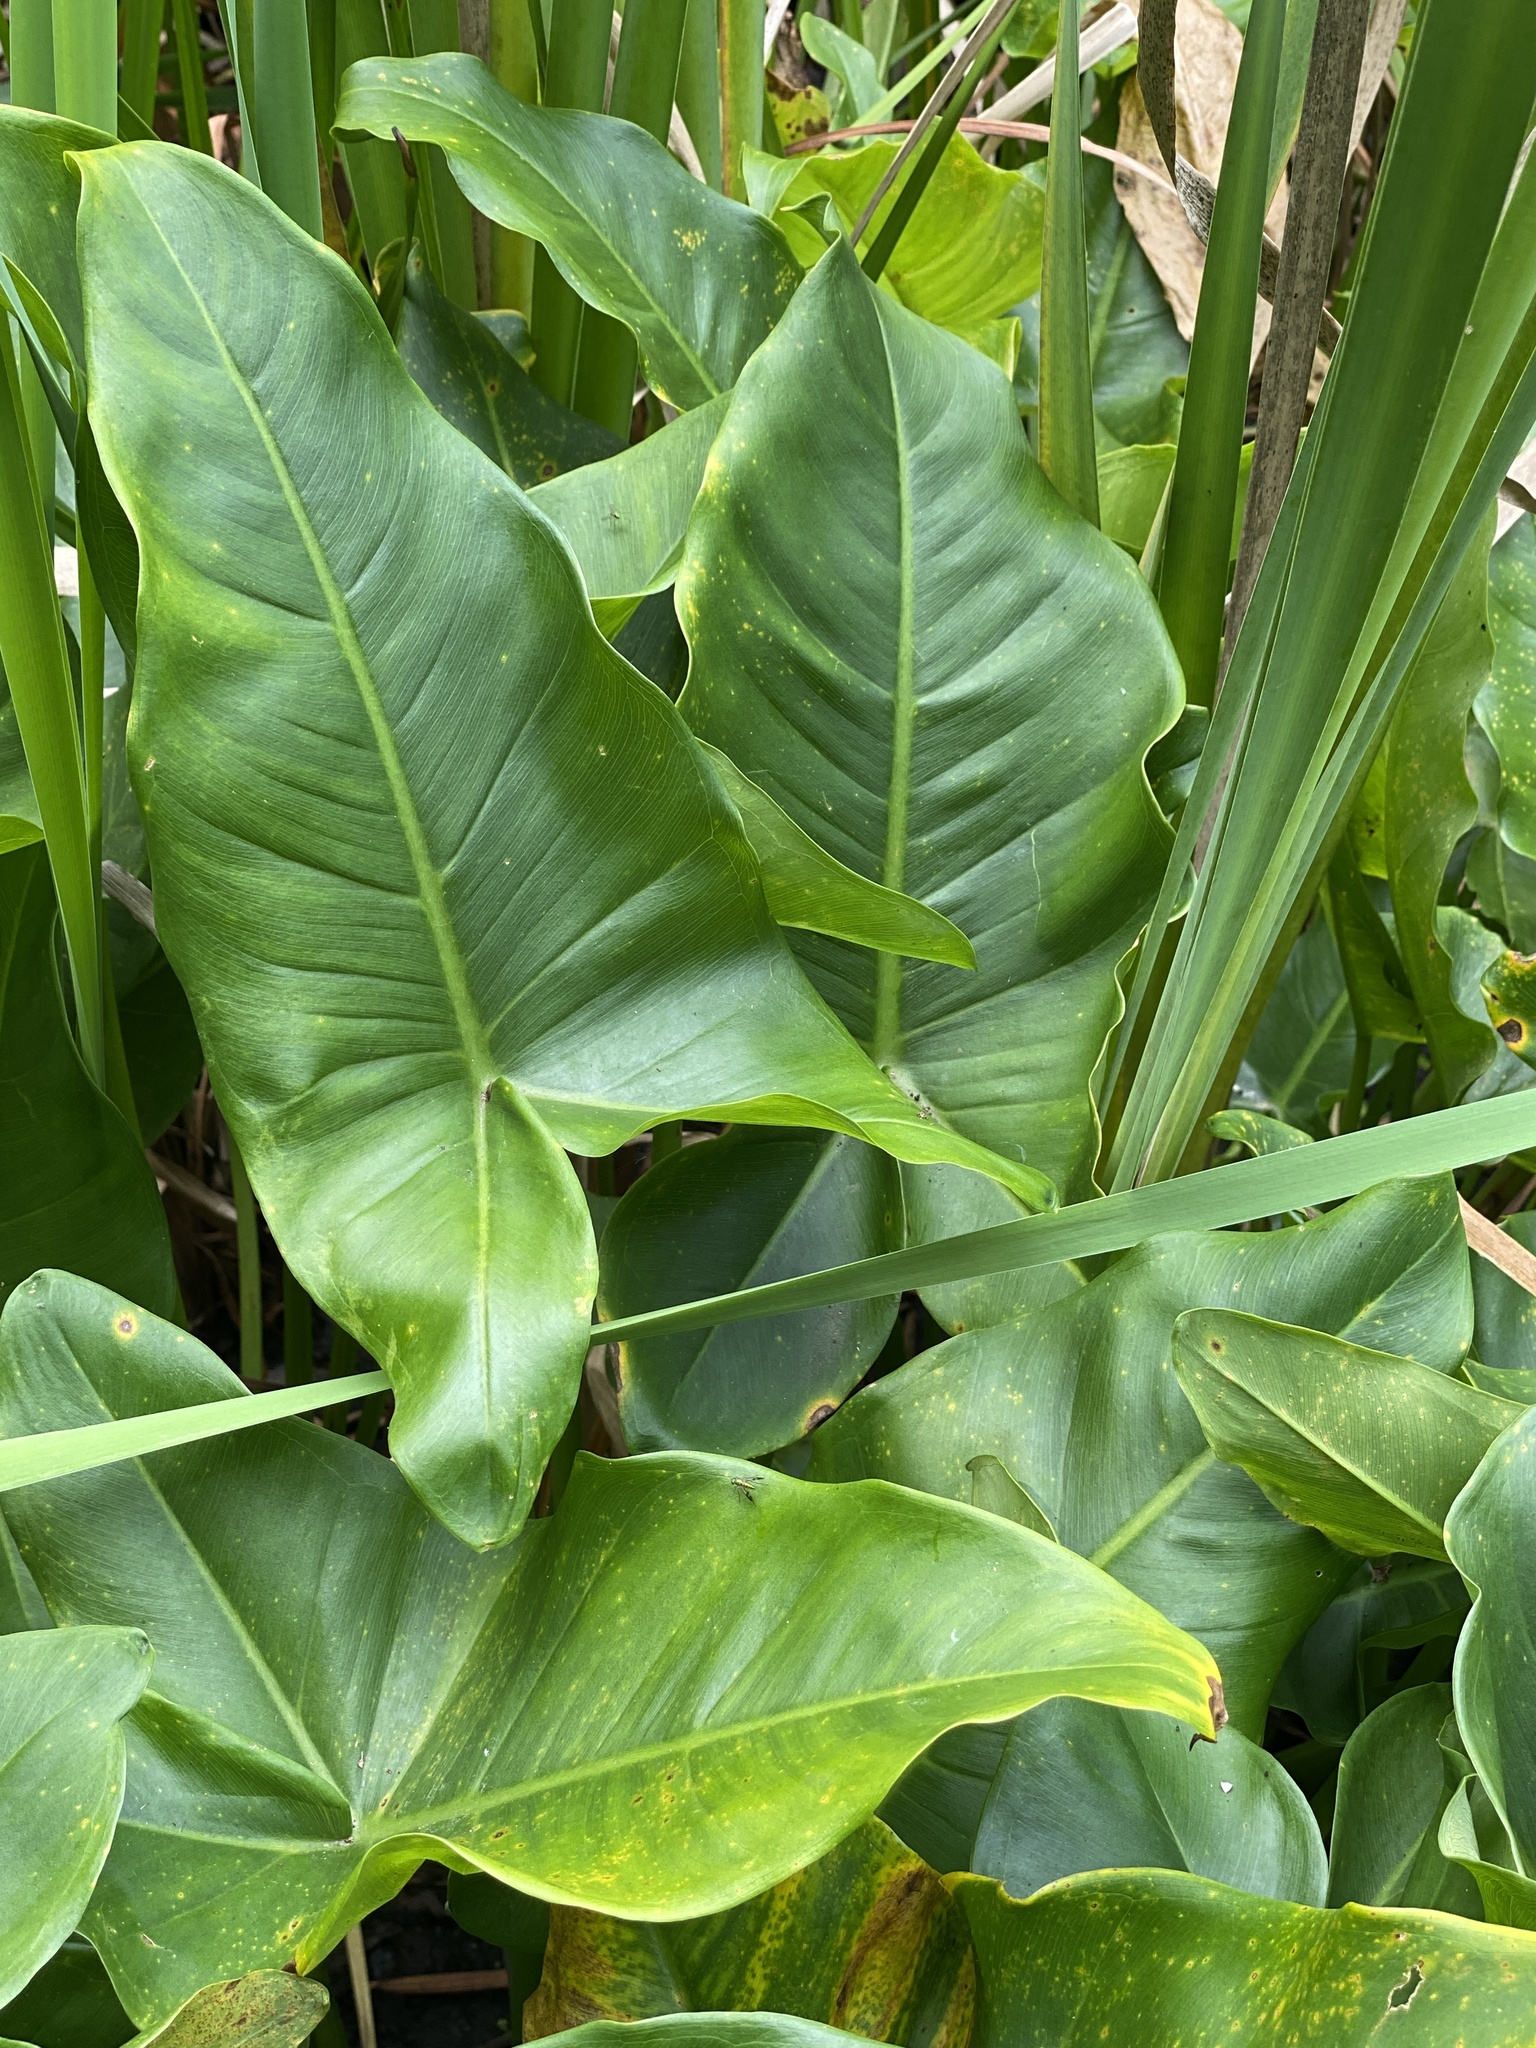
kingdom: Plantae
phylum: Tracheophyta
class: Liliopsida
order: Alismatales
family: Araceae
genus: Peltandra
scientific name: Peltandra virginica
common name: Arrow arum
